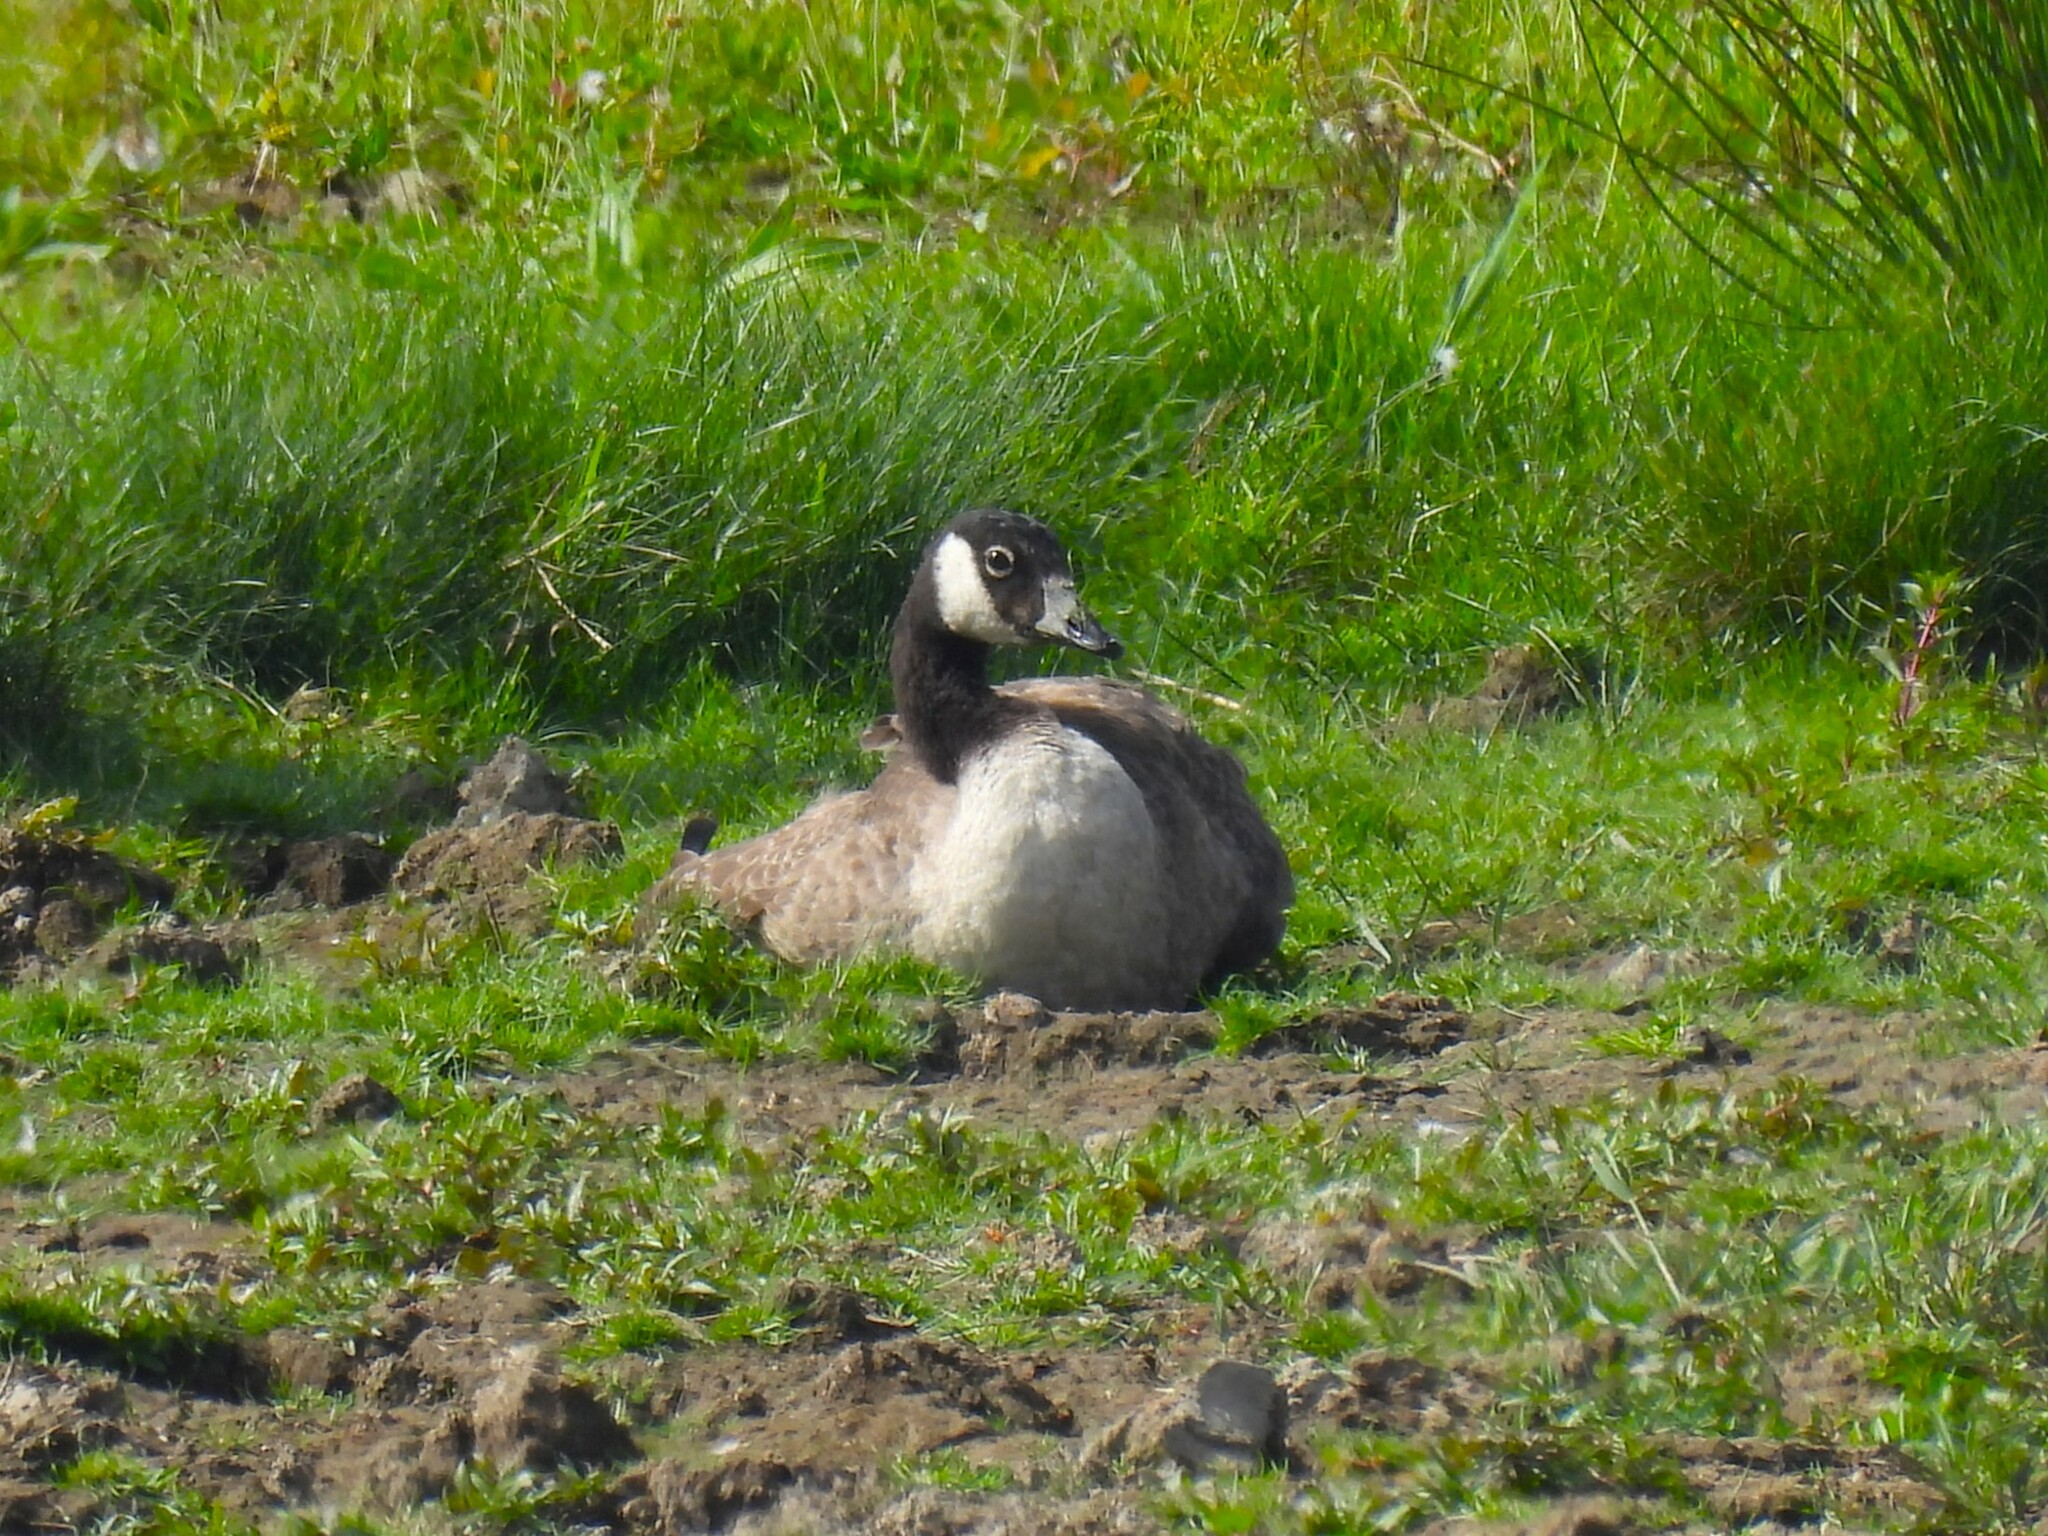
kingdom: Animalia
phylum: Chordata
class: Aves
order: Anseriformes
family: Anatidae
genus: Branta
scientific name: Branta canadensis
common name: Canada goose
